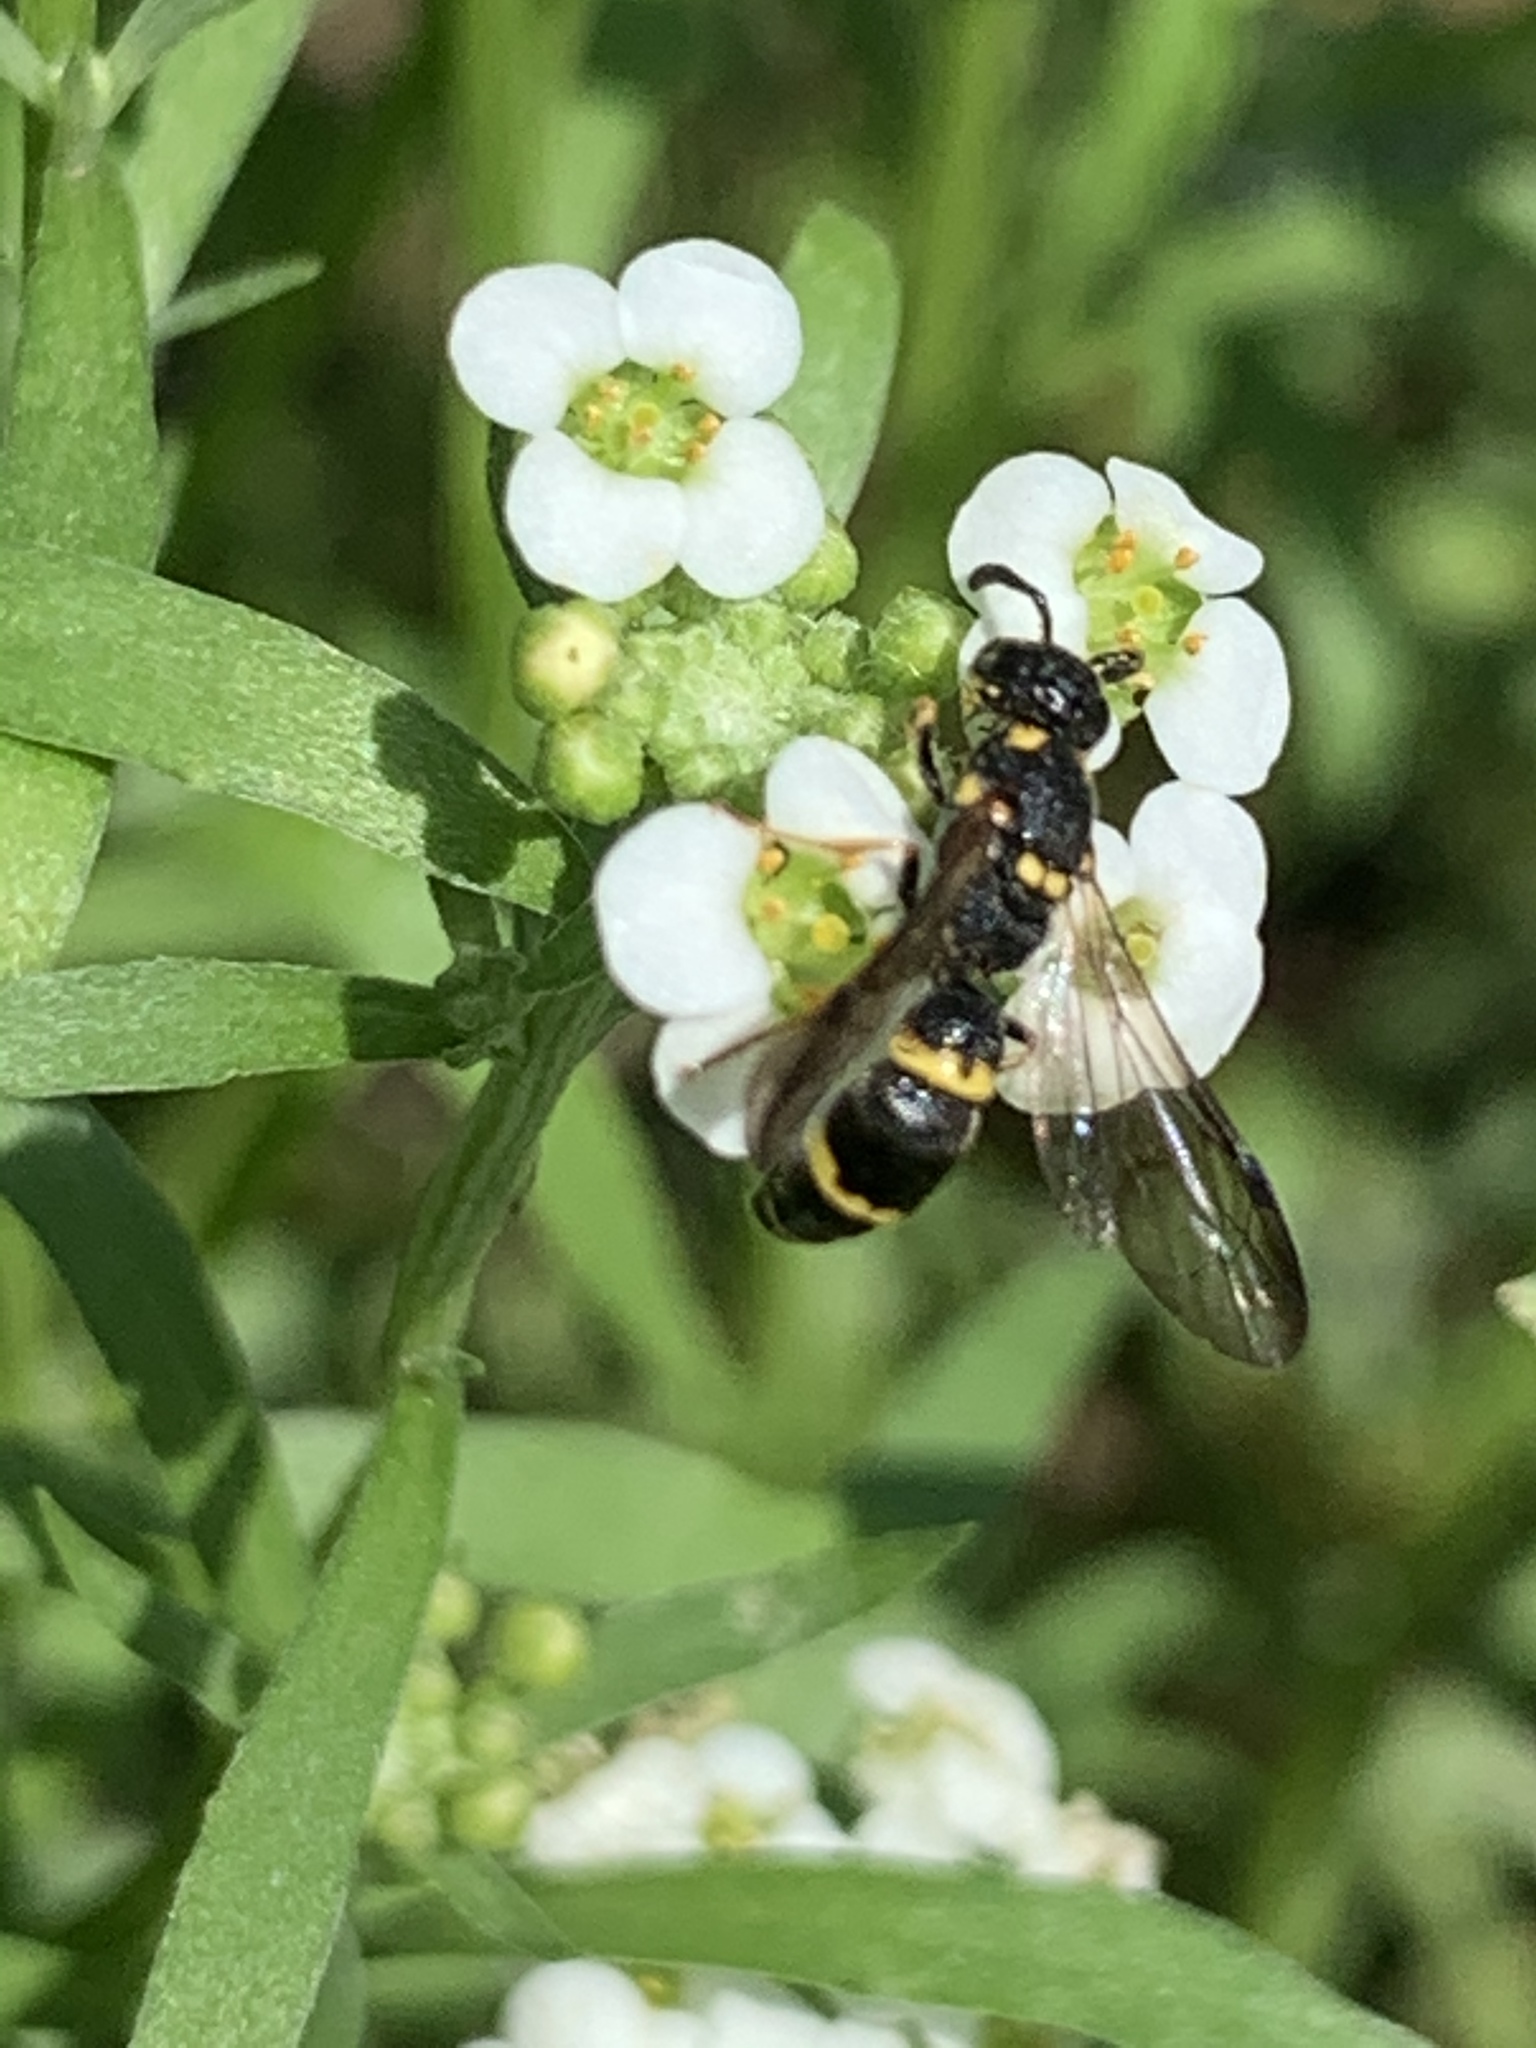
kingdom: Animalia
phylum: Arthropoda
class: Insecta
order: Hymenoptera
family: Eumenidae
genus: Symmorphus
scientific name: Symmorphus canadensis
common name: Canadian potter wasp
